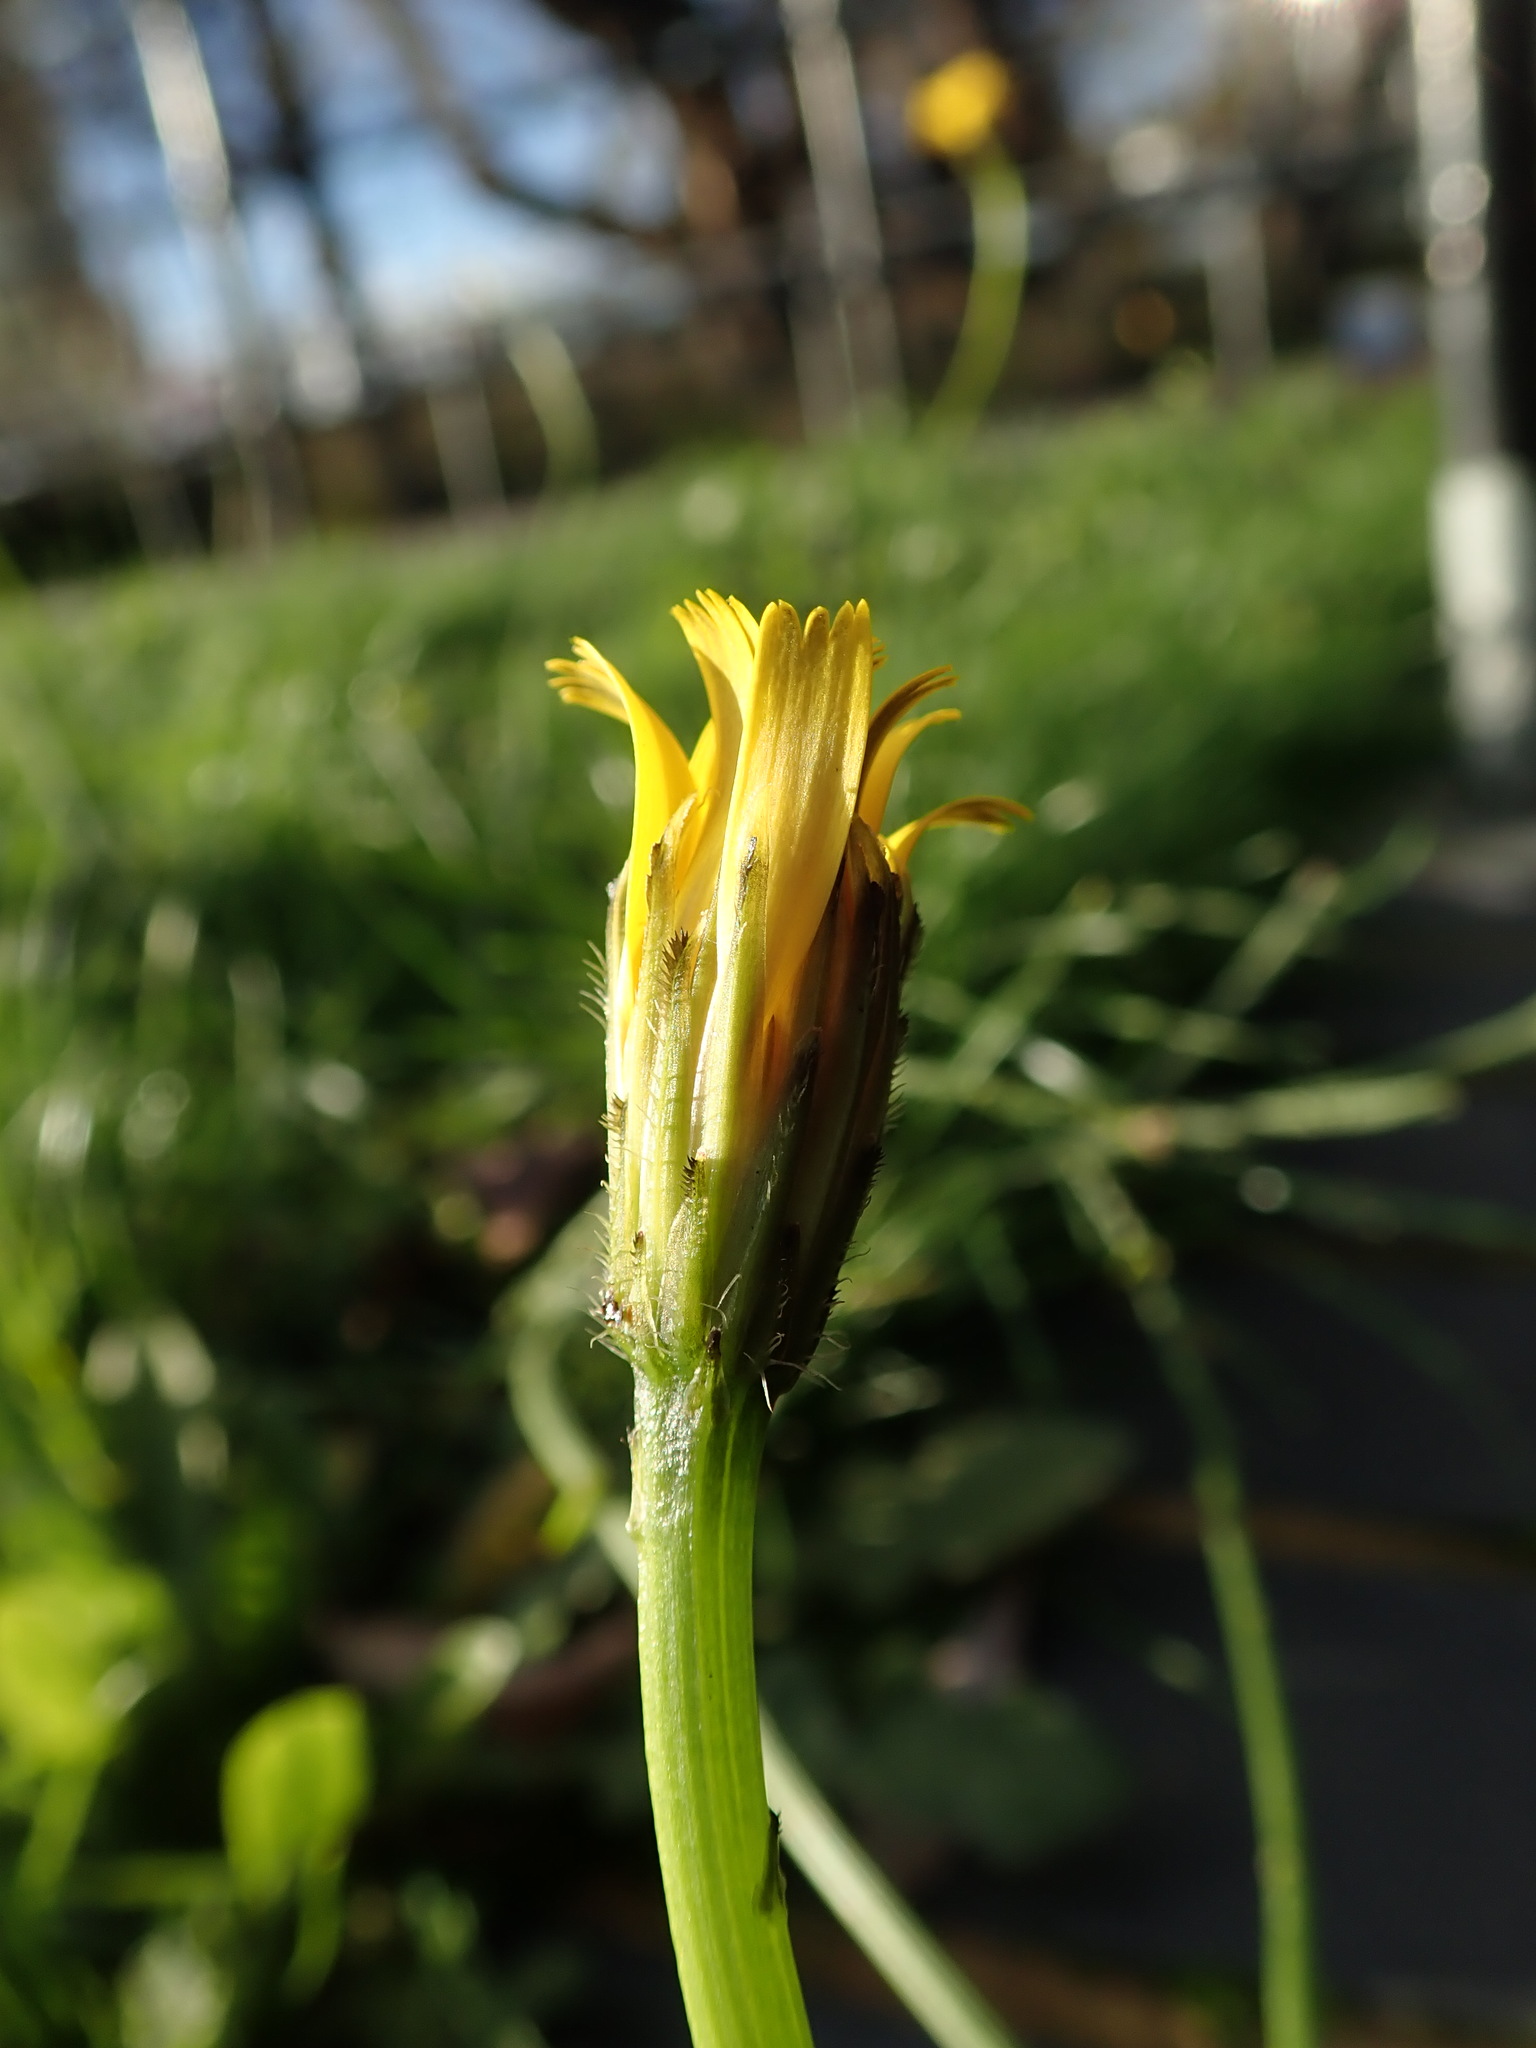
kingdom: Plantae
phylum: Tracheophyta
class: Magnoliopsida
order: Asterales
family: Asteraceae
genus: Hypochaeris
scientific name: Hypochaeris radicata
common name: Flatweed
